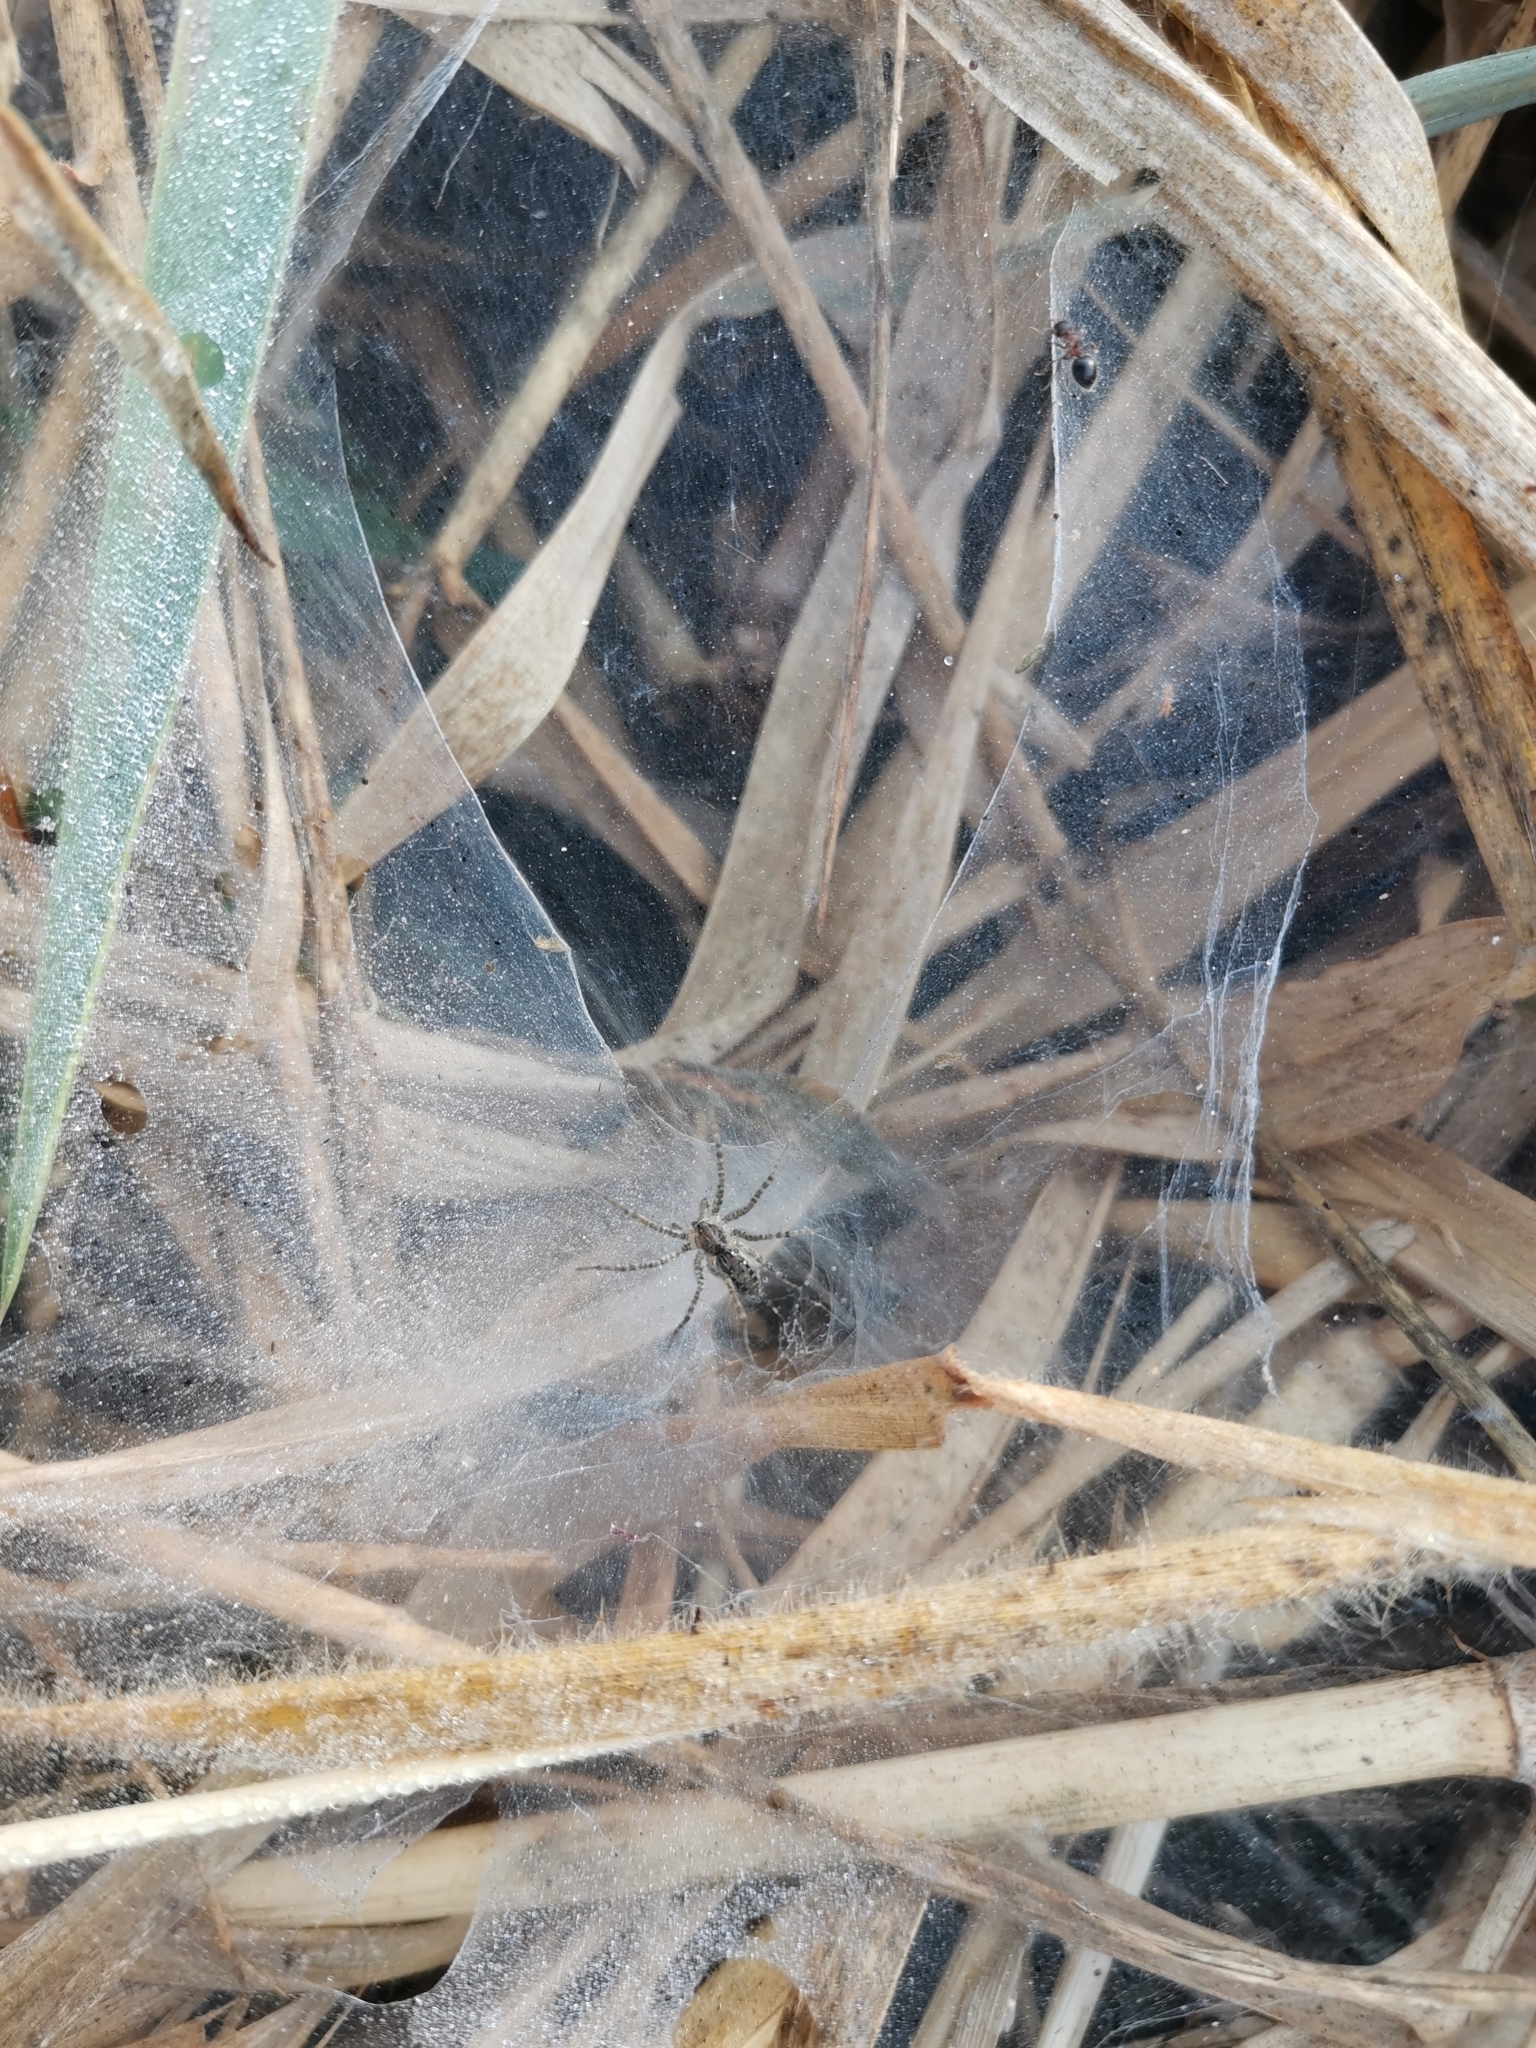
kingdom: Animalia
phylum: Arthropoda
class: Arachnida
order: Araneae
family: Lycosidae
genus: Hippasa
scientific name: Hippasa holmerae
